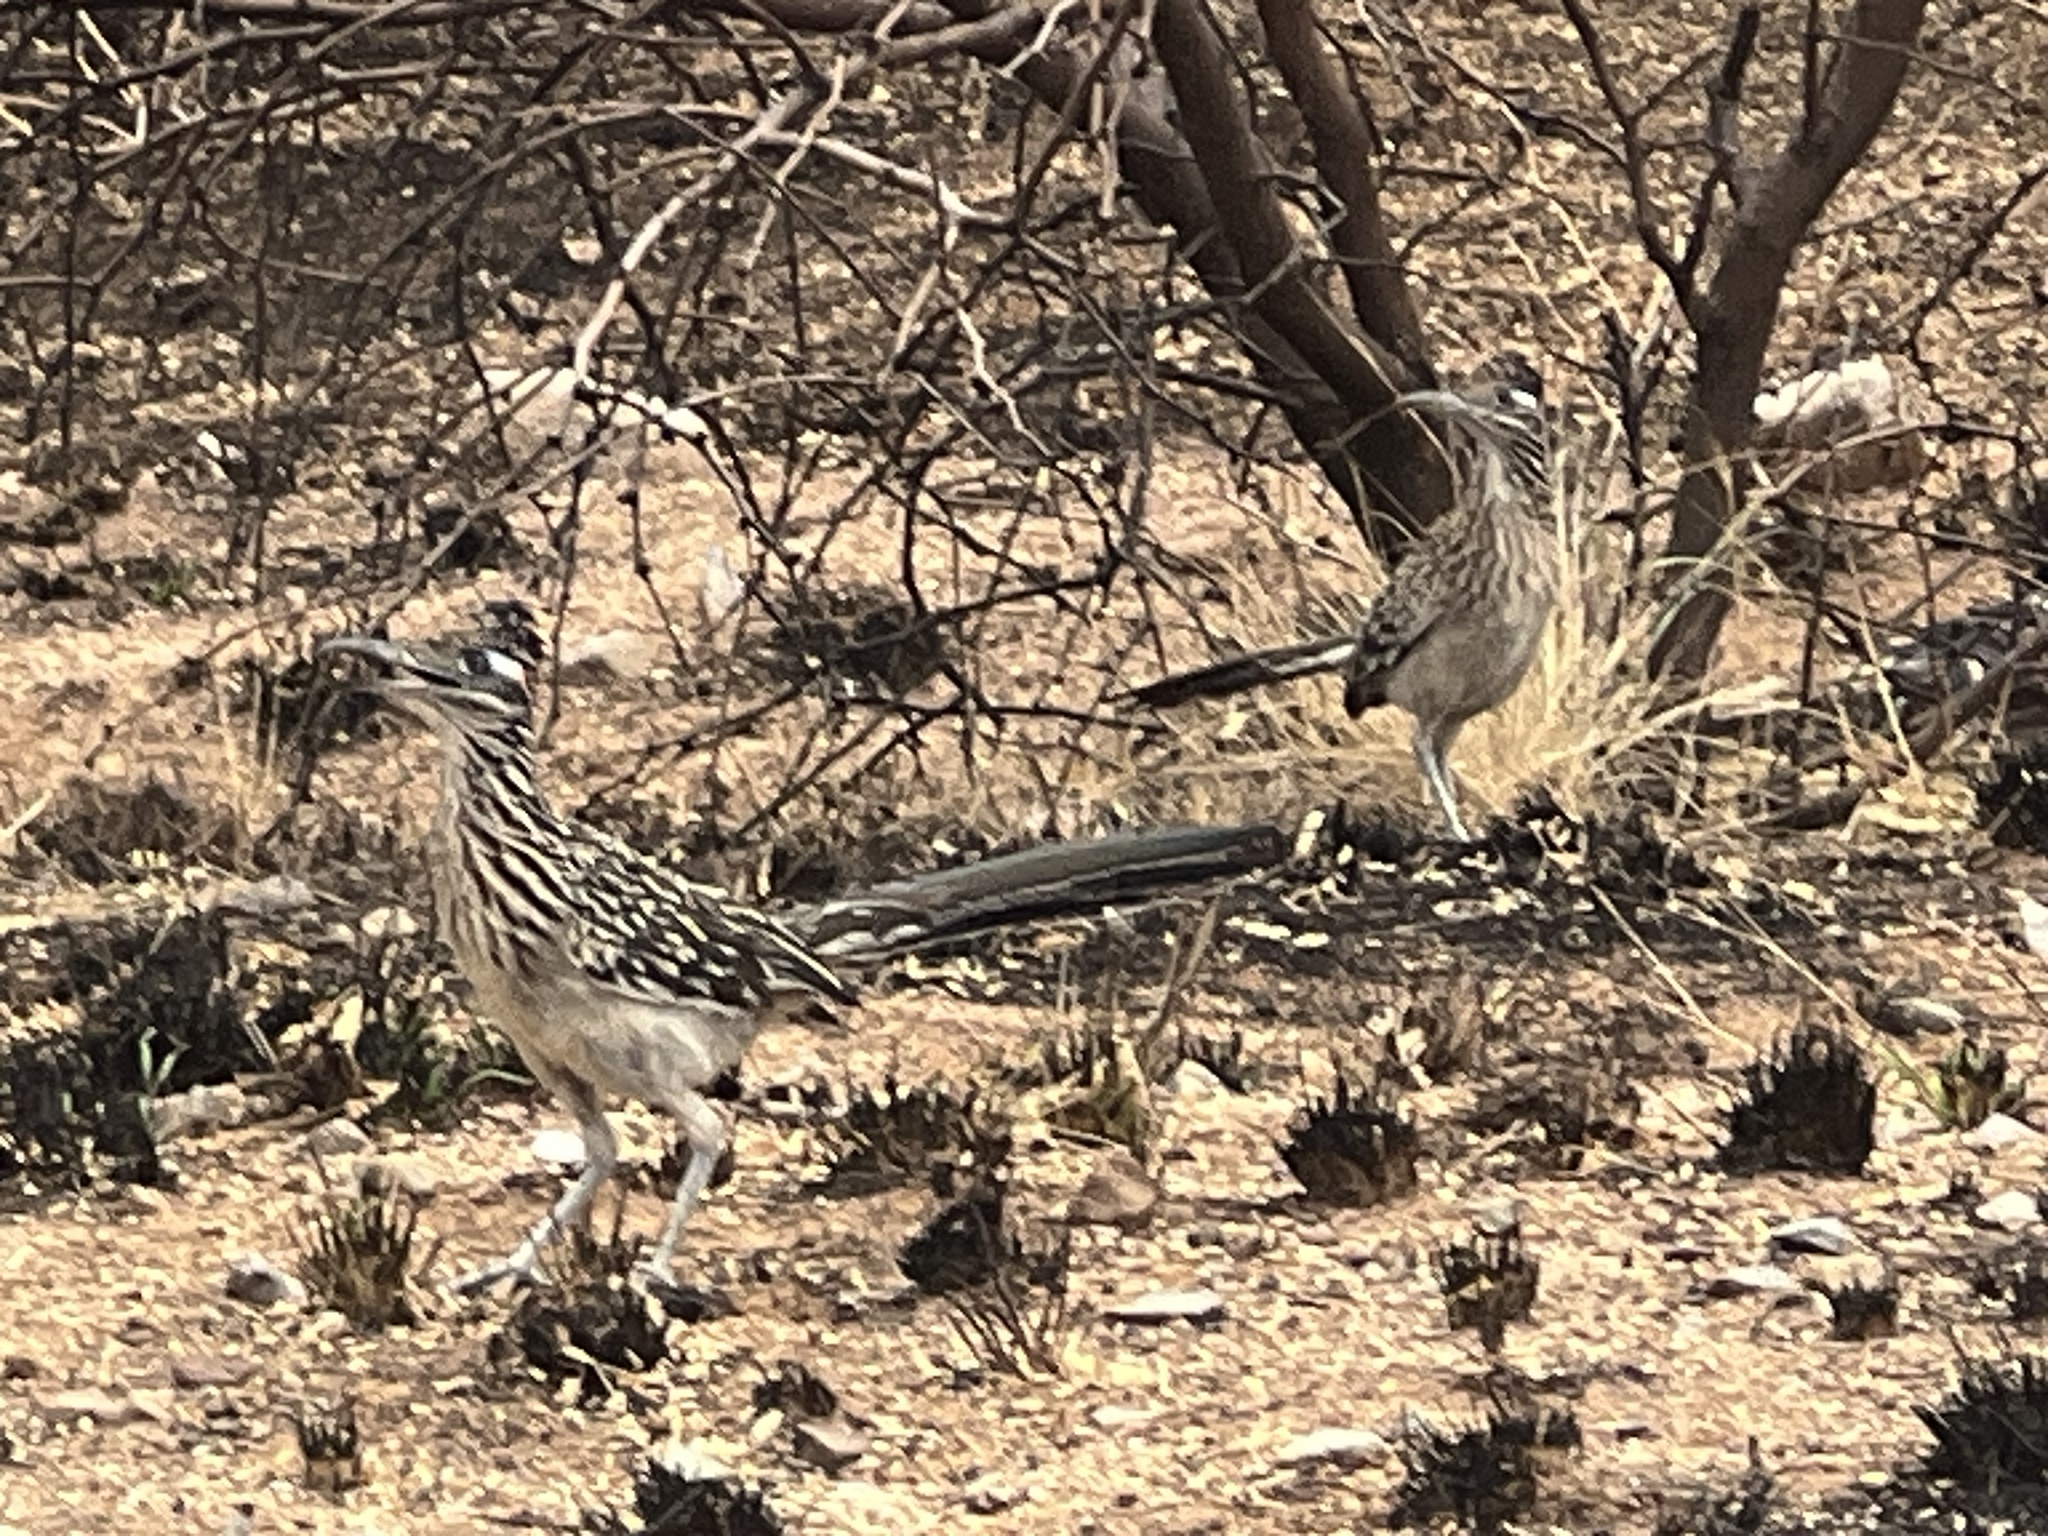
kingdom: Animalia
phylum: Chordata
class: Aves
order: Cuculiformes
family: Cuculidae
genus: Geococcyx
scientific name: Geococcyx californianus
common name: Greater roadrunner
